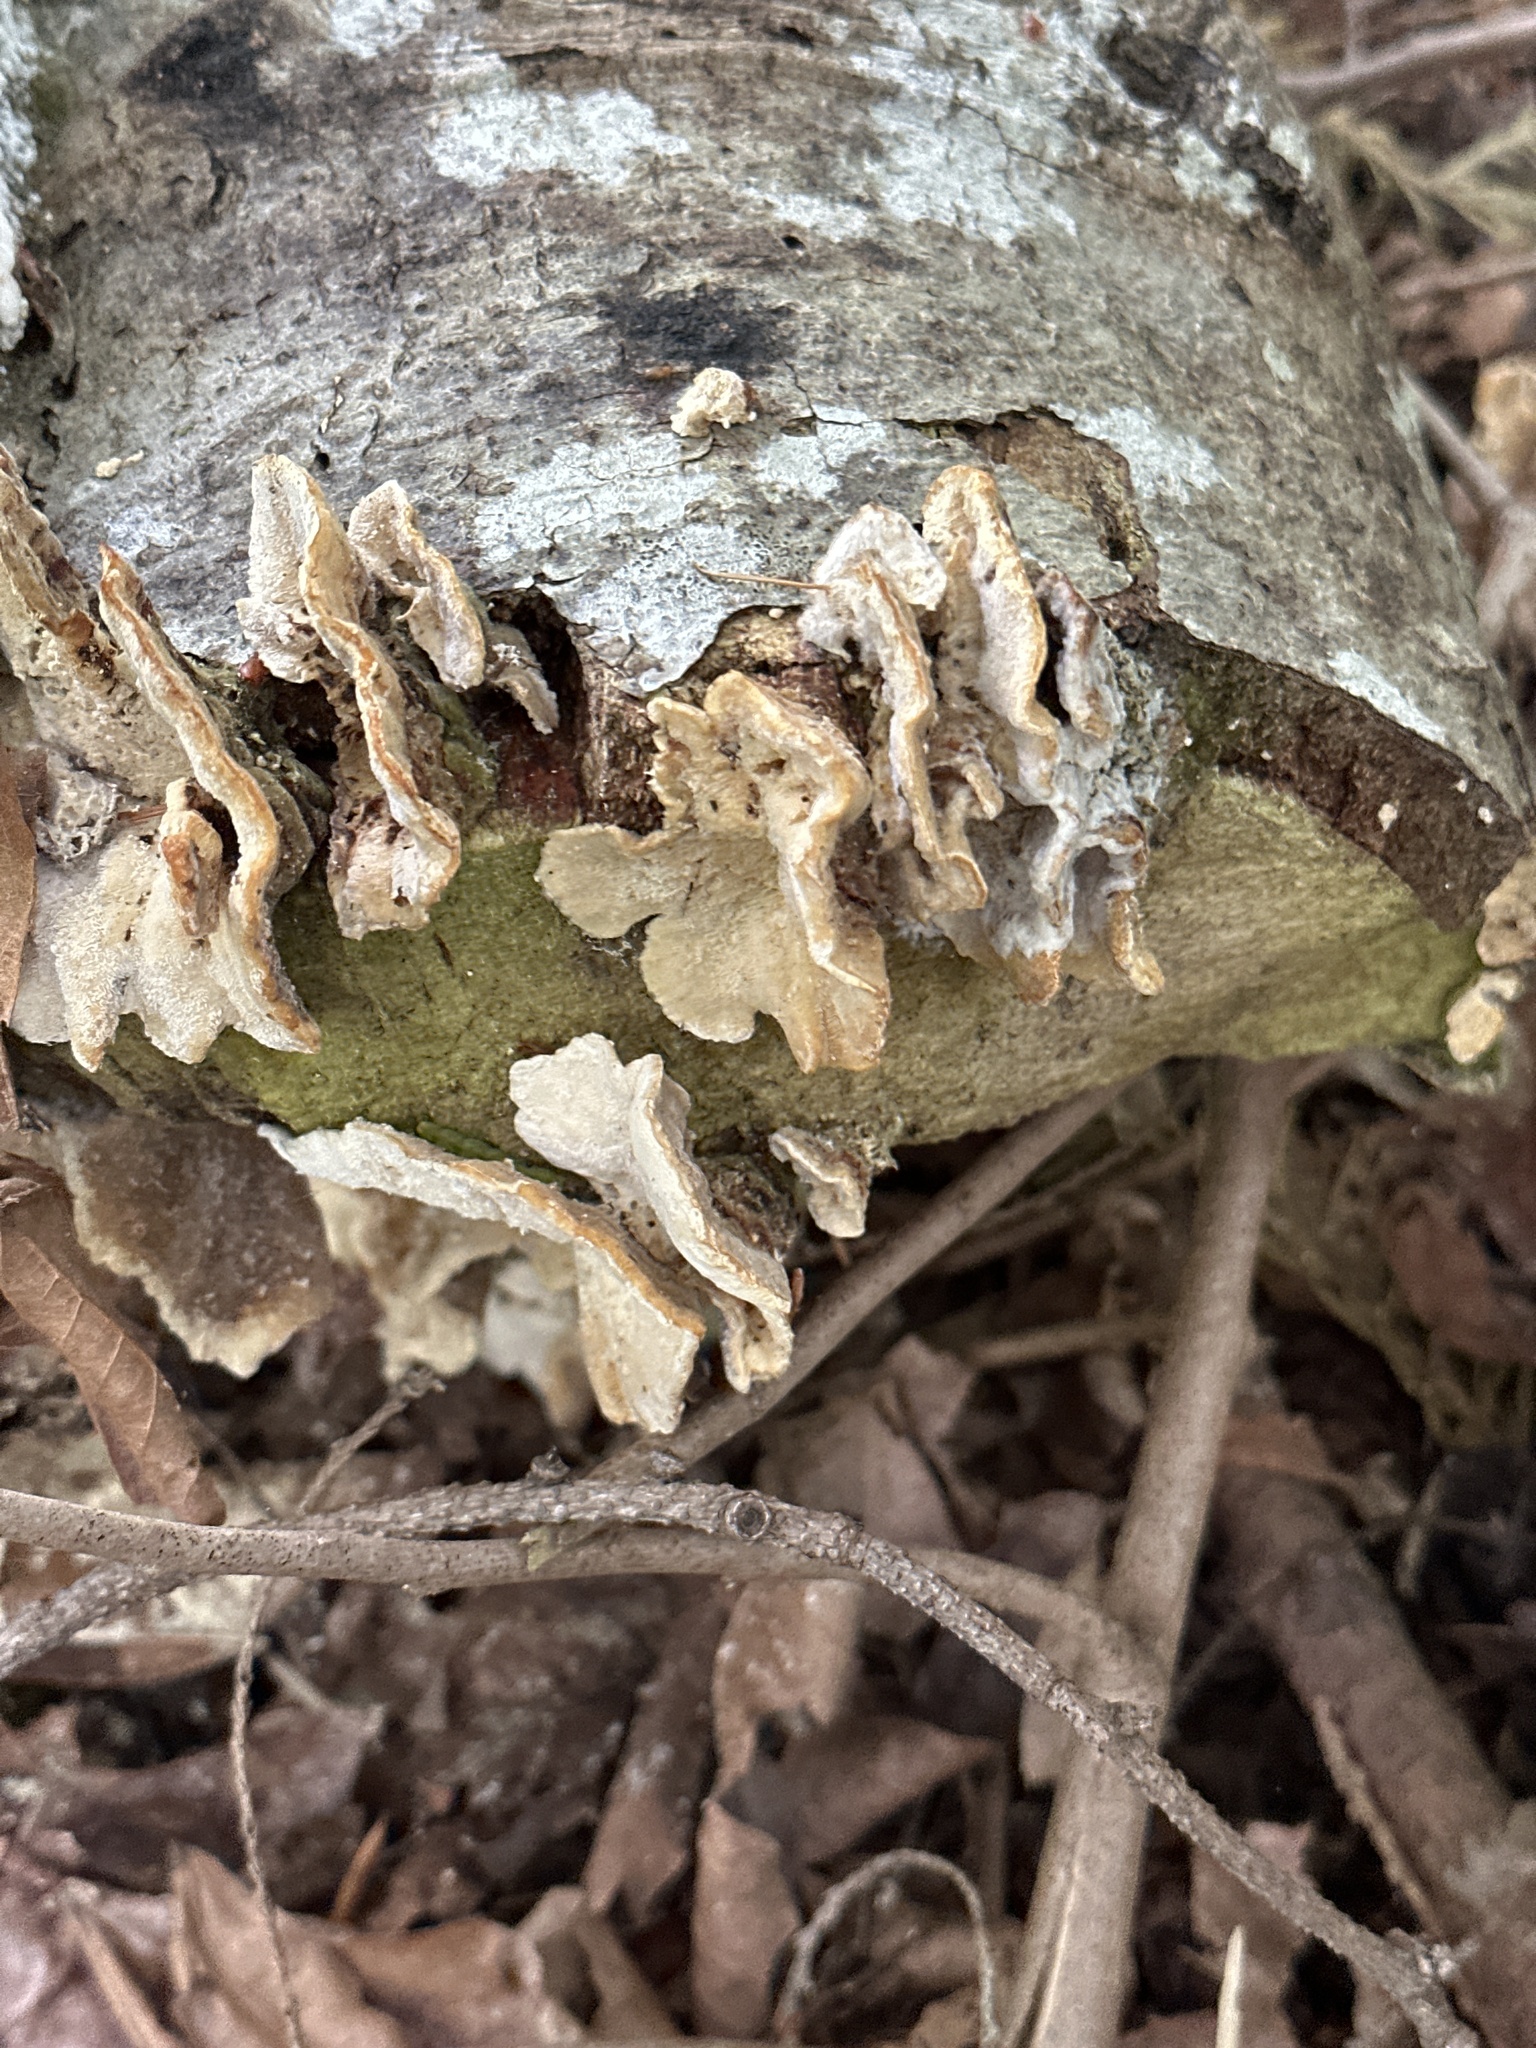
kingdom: Fungi
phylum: Basidiomycota
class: Agaricomycetes
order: Polyporales
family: Meruliaceae
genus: Phlebia
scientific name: Phlebia tremellosa
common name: Jelly rot
